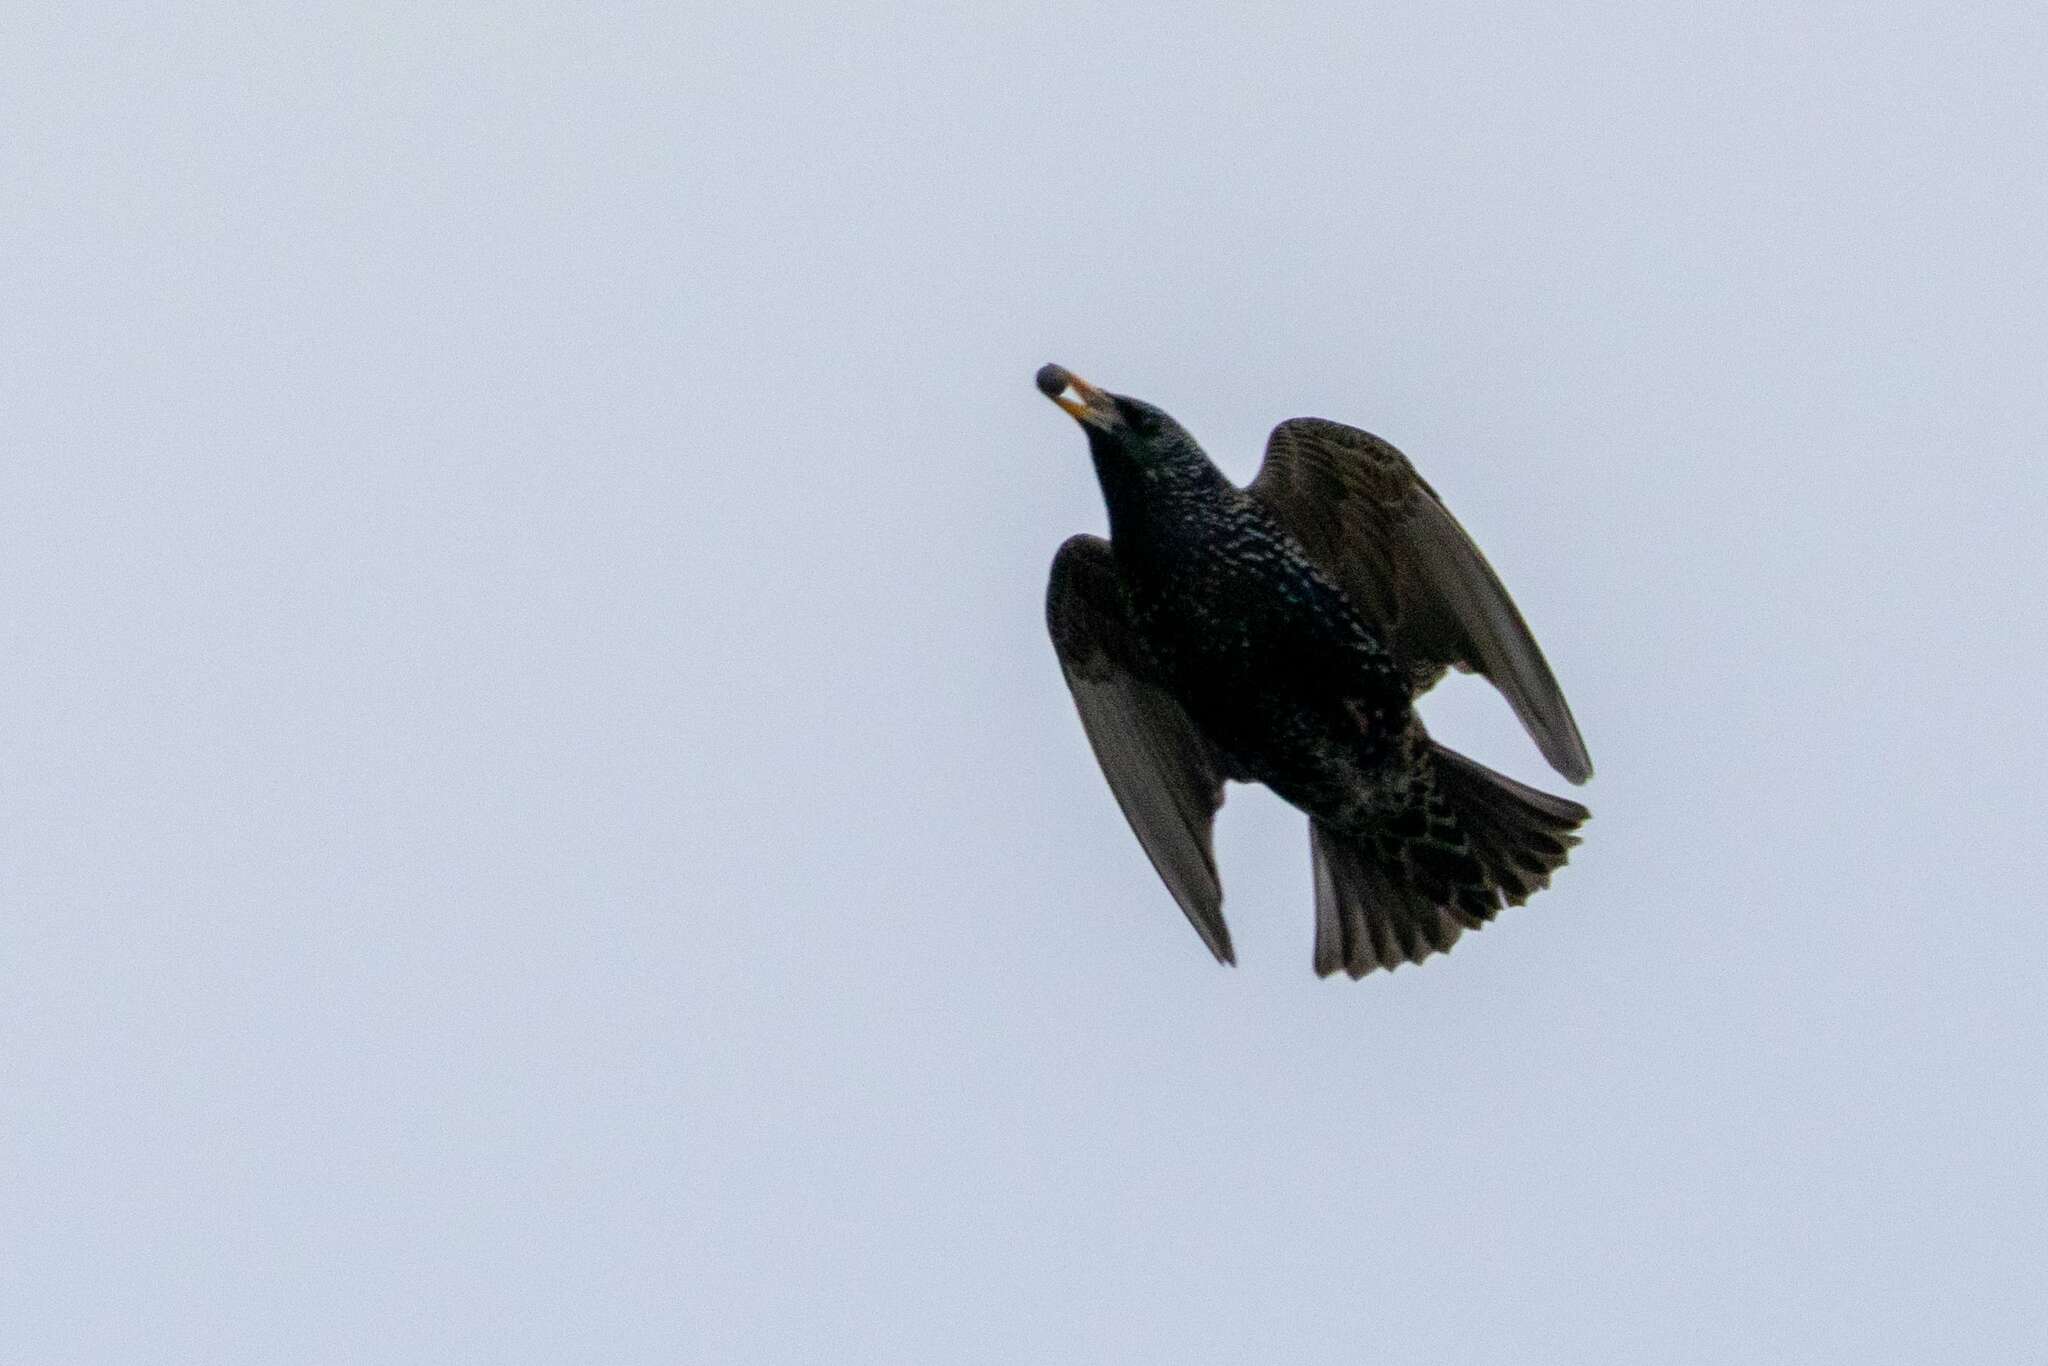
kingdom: Animalia
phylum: Chordata
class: Aves
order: Passeriformes
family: Sturnidae
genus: Sturnus
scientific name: Sturnus vulgaris
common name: Common starling
